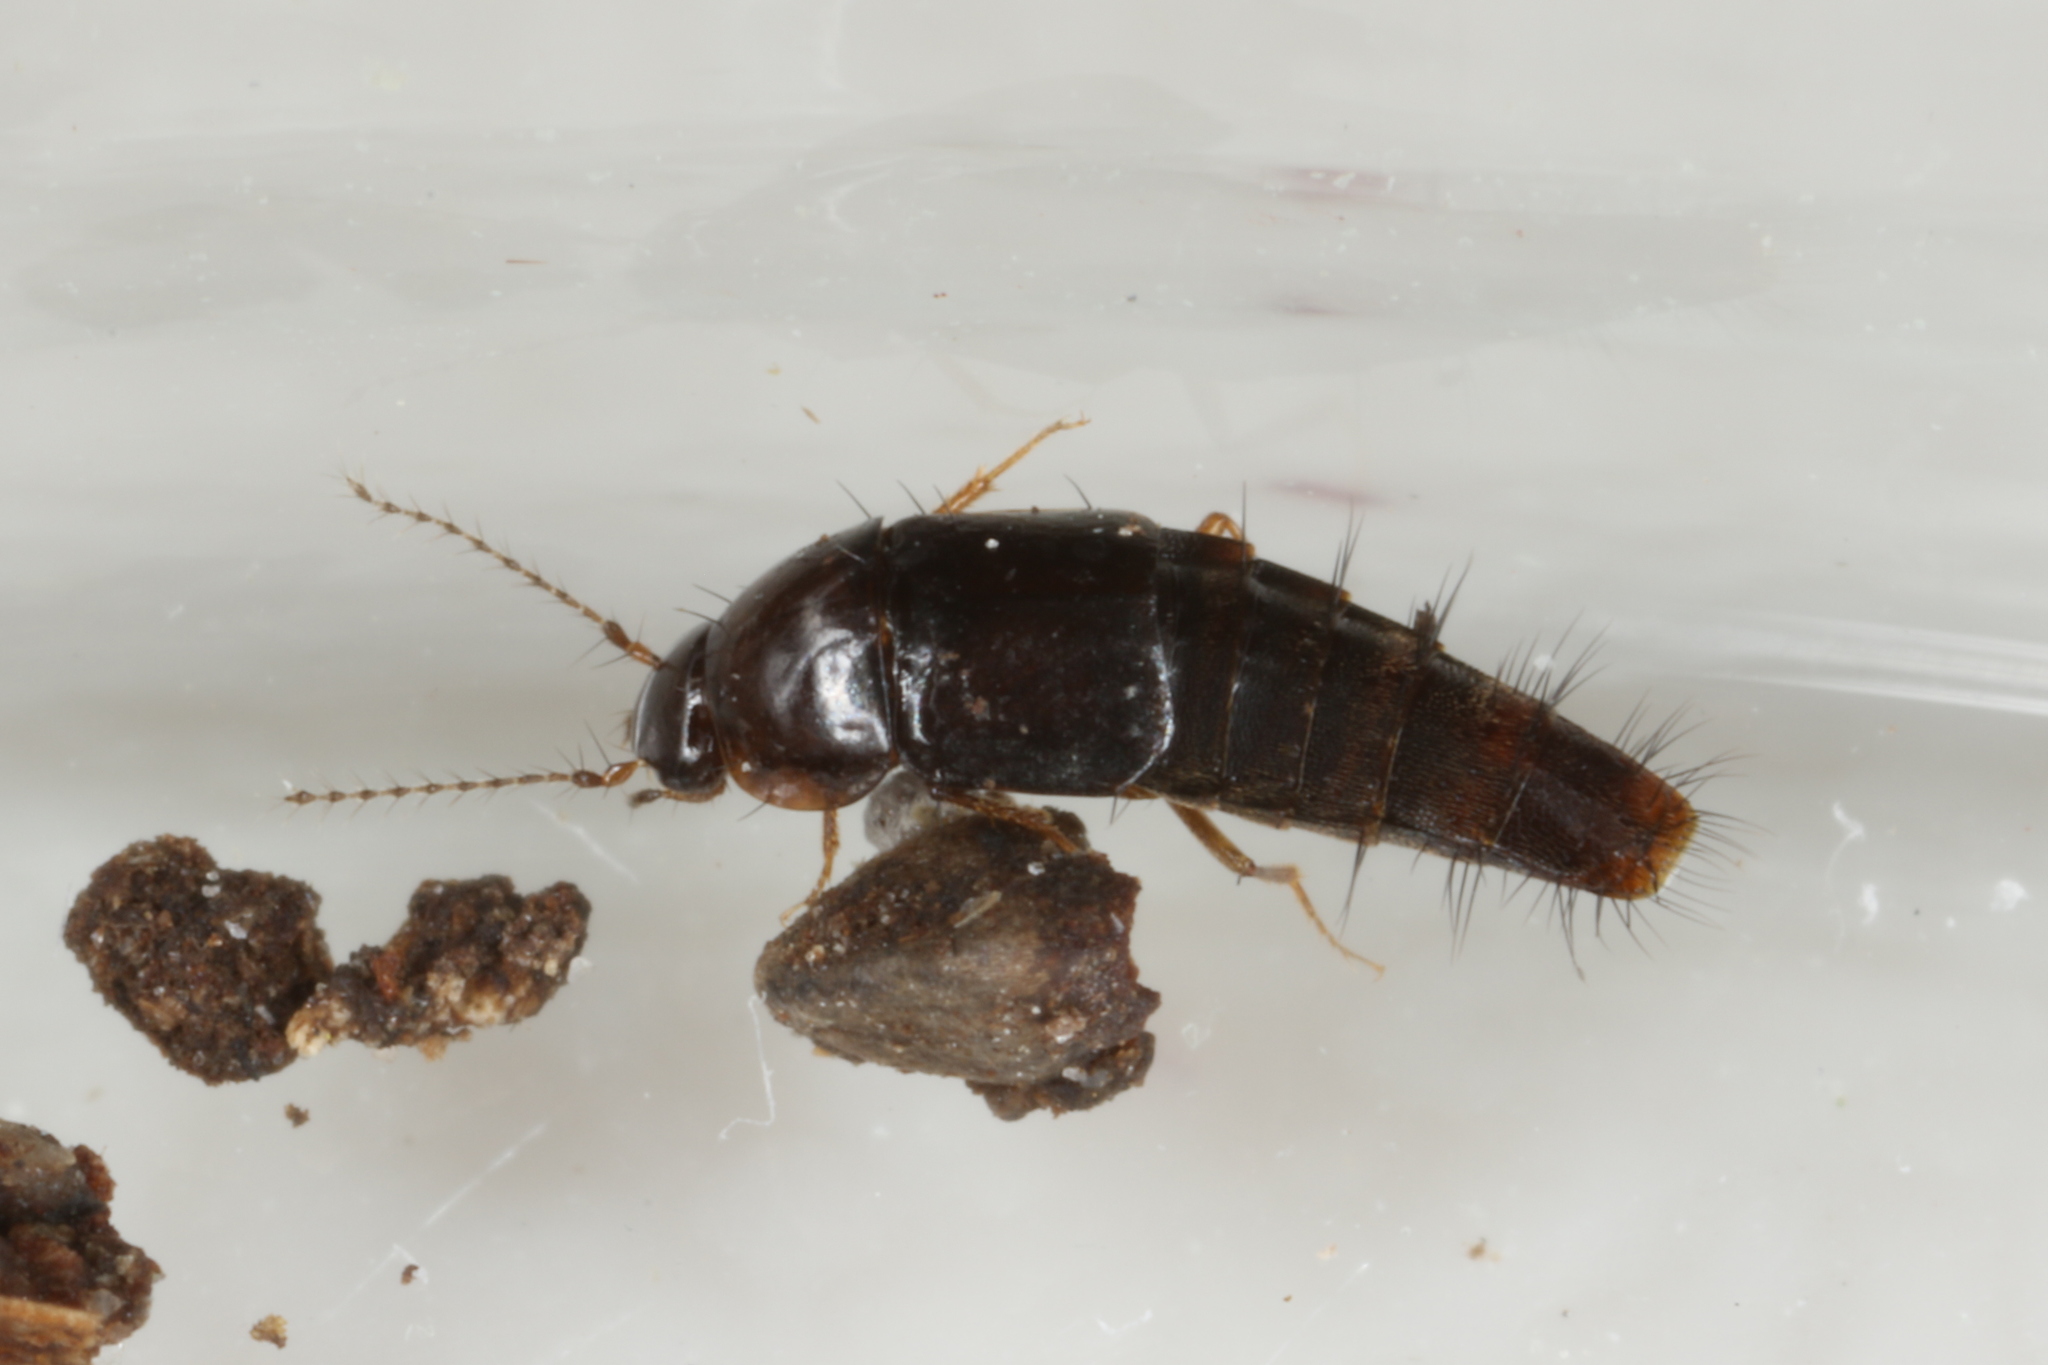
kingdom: Animalia
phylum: Arthropoda
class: Insecta
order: Coleoptera
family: Staphylinidae
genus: Habrocerus
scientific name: Habrocerus capillaricornis
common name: Staph beetle
